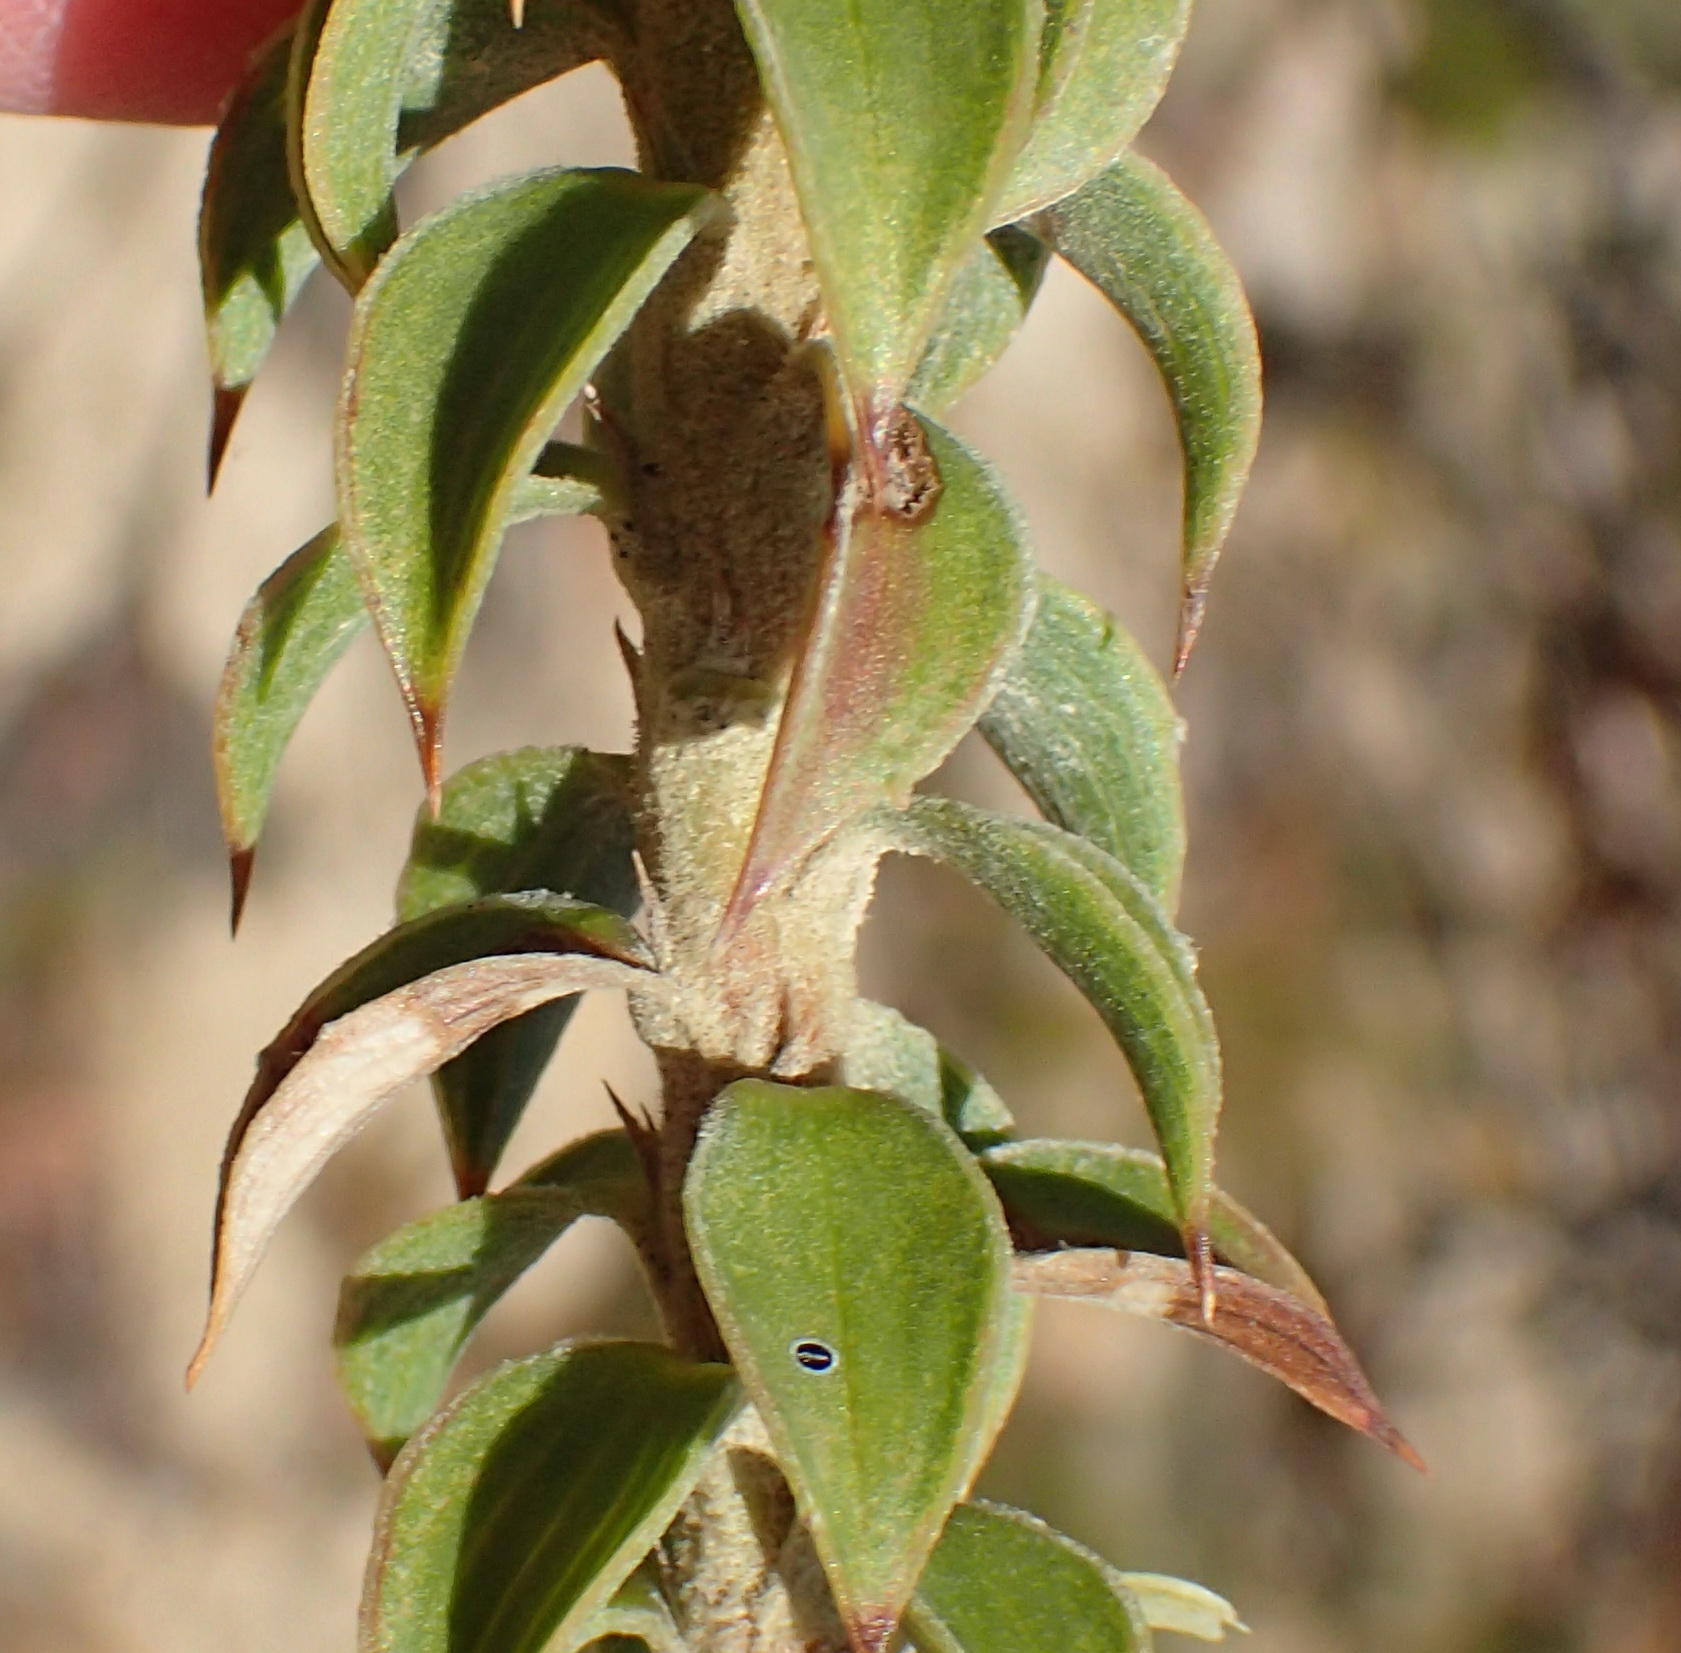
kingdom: Plantae
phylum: Tracheophyta
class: Magnoliopsida
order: Asterales
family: Asteraceae
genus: Oedera
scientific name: Oedera speciosa
